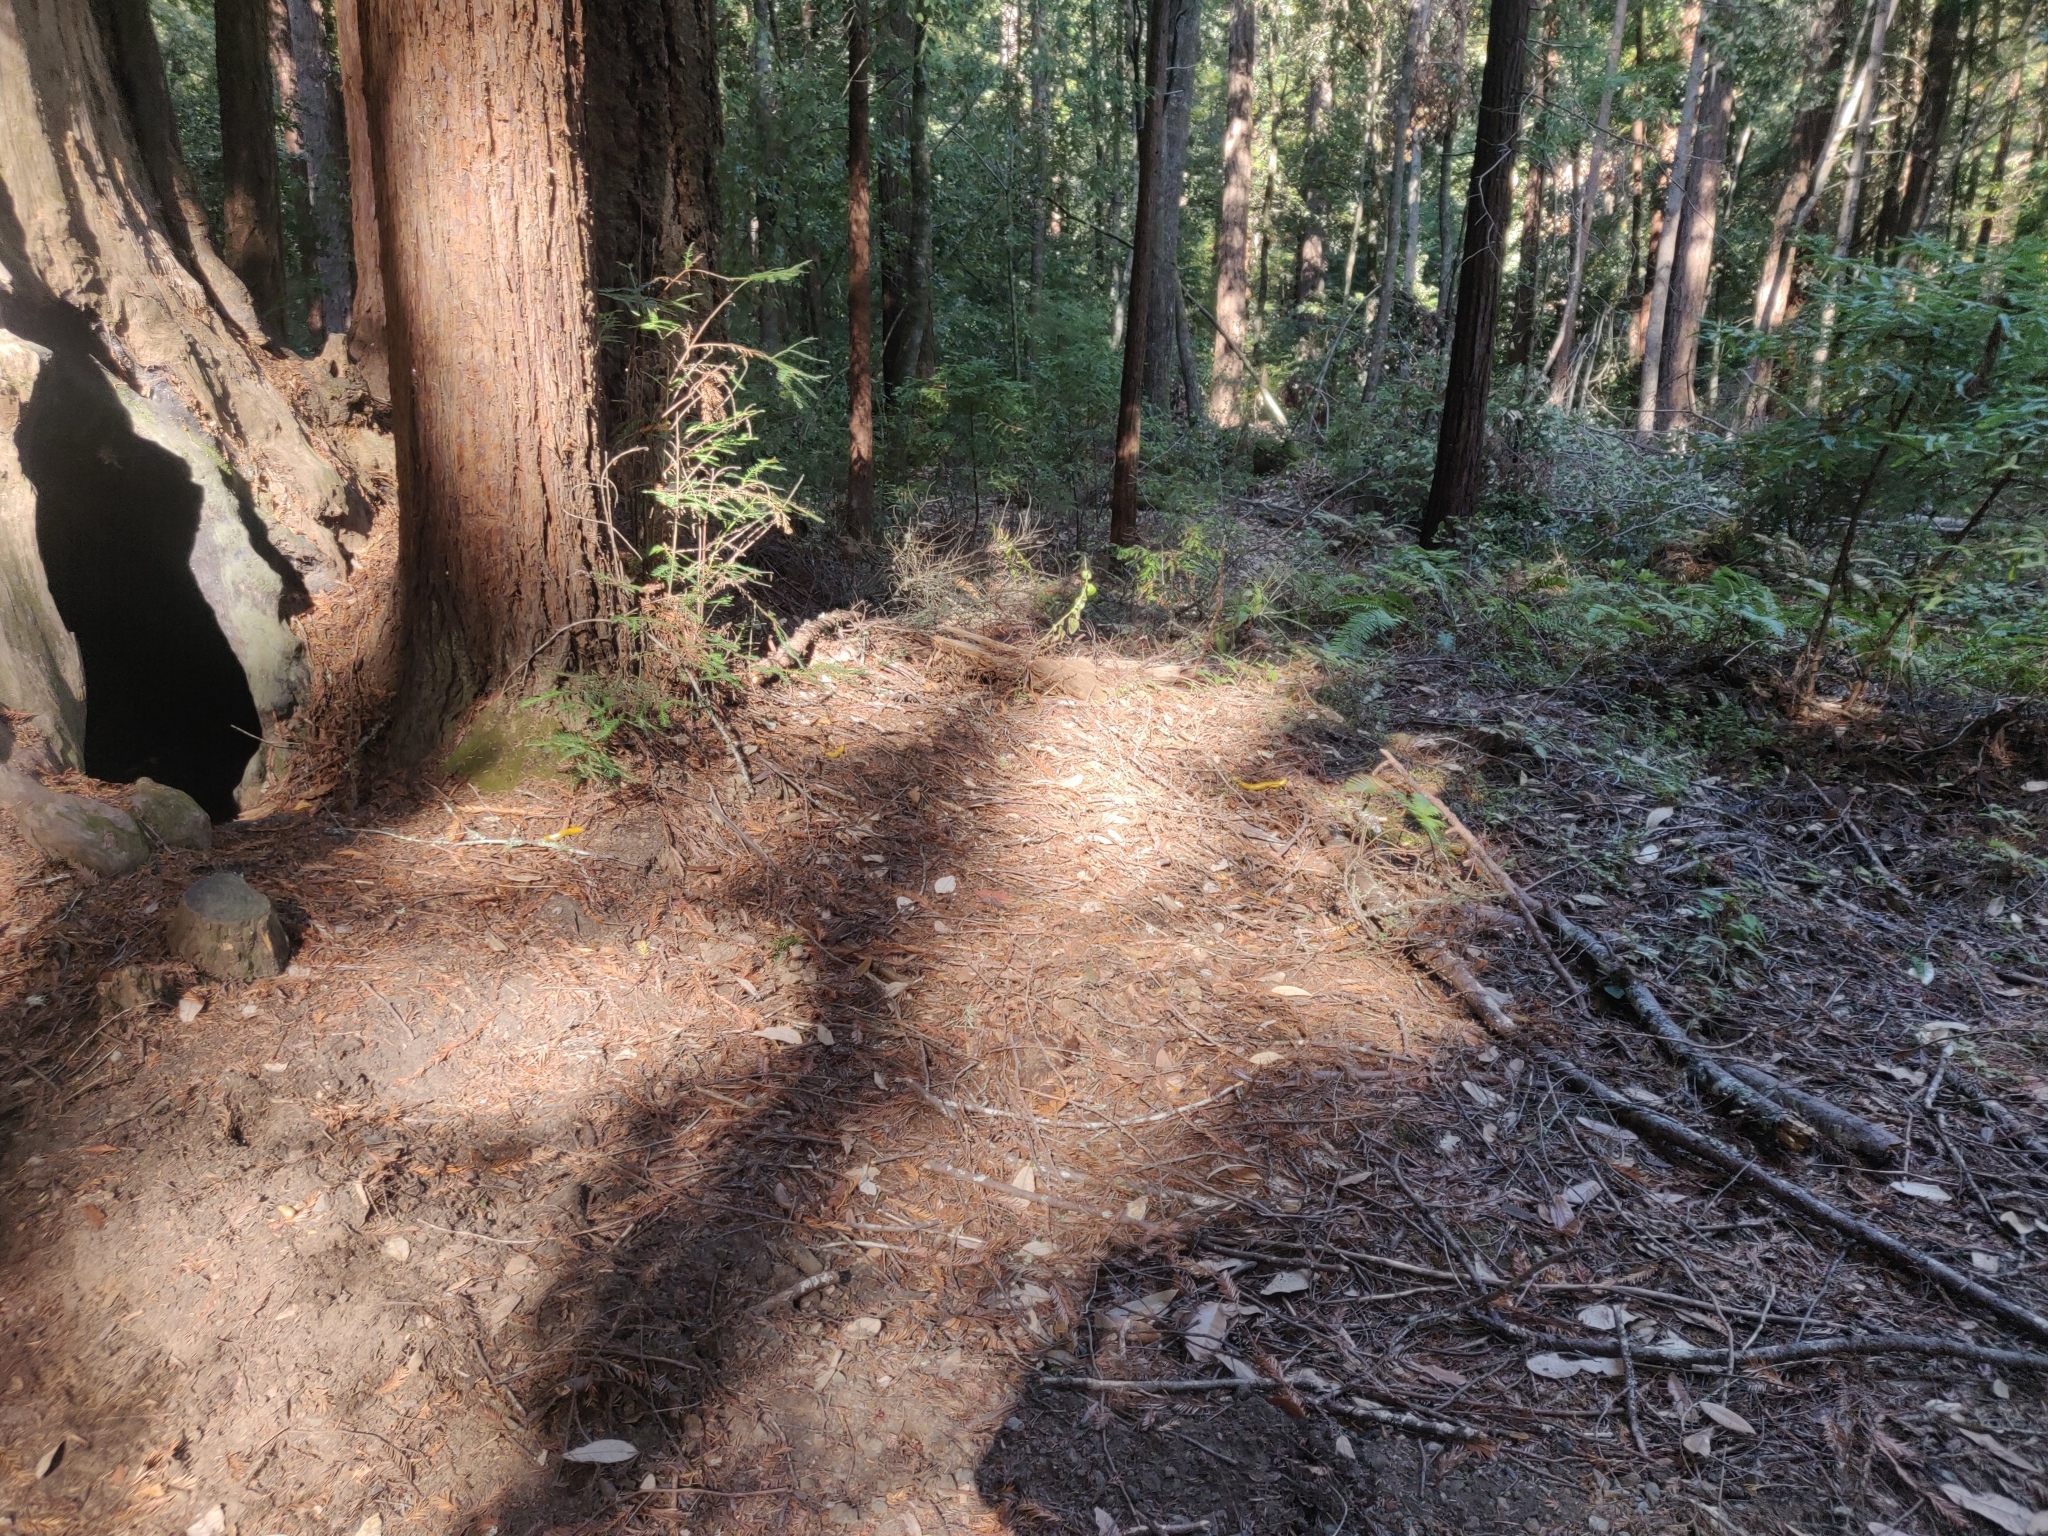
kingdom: Animalia
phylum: Mollusca
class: Gastropoda
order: Stylommatophora
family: Ariolimacidae
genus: Ariolimax
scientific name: Ariolimax californicus
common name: California banana slug
